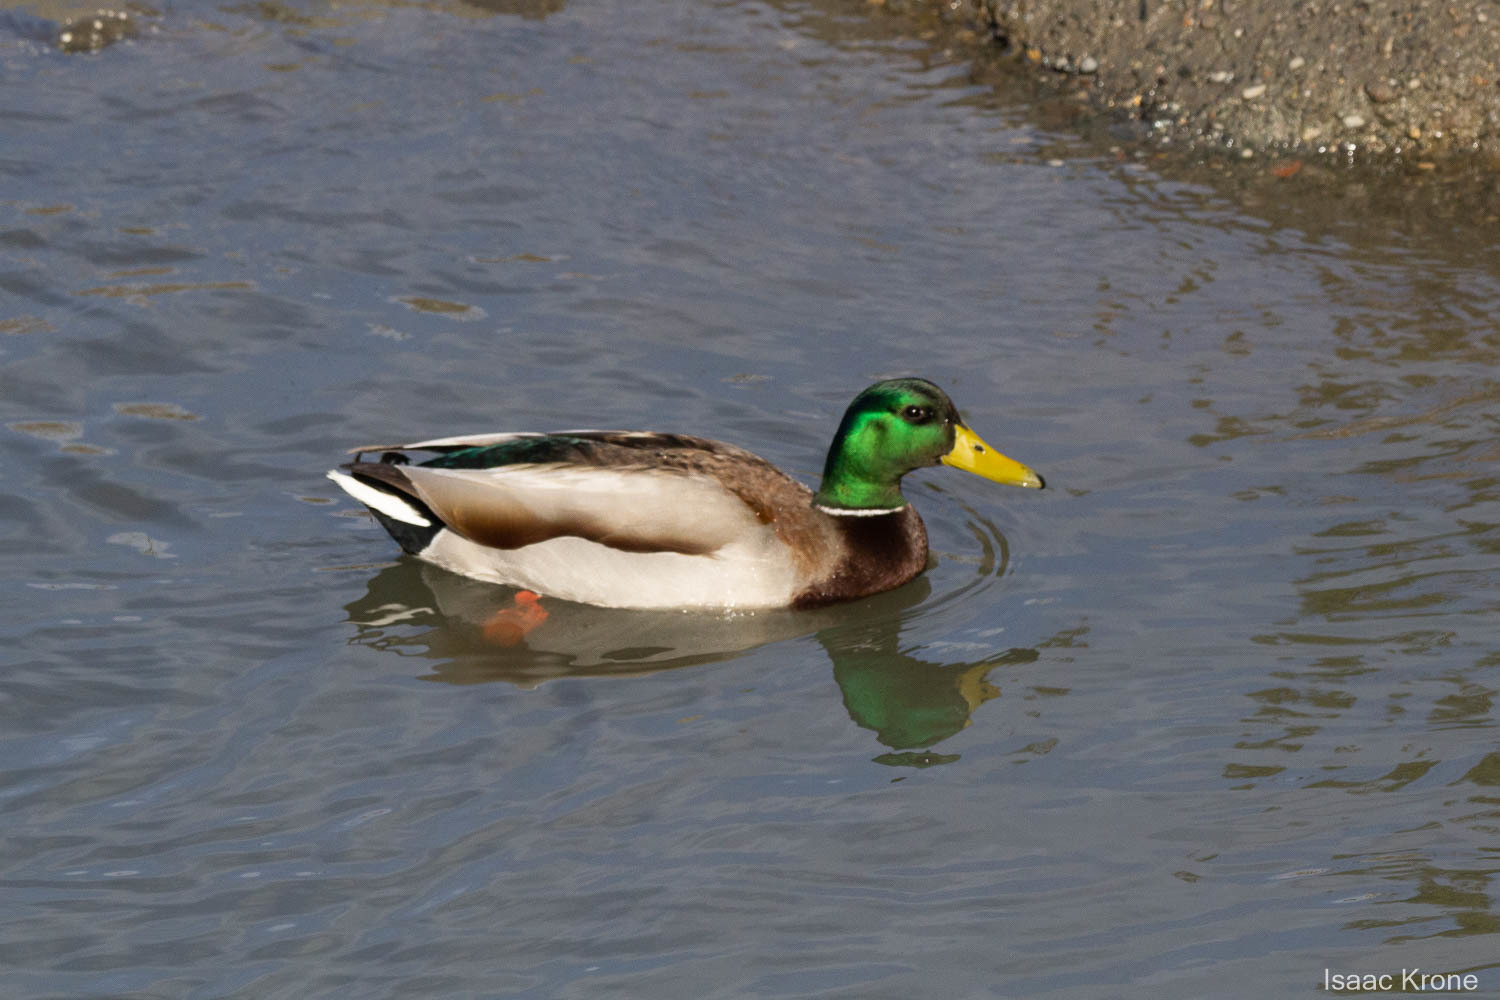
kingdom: Animalia
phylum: Chordata
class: Aves
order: Anseriformes
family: Anatidae
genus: Anas
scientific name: Anas platyrhynchos
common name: Mallard
